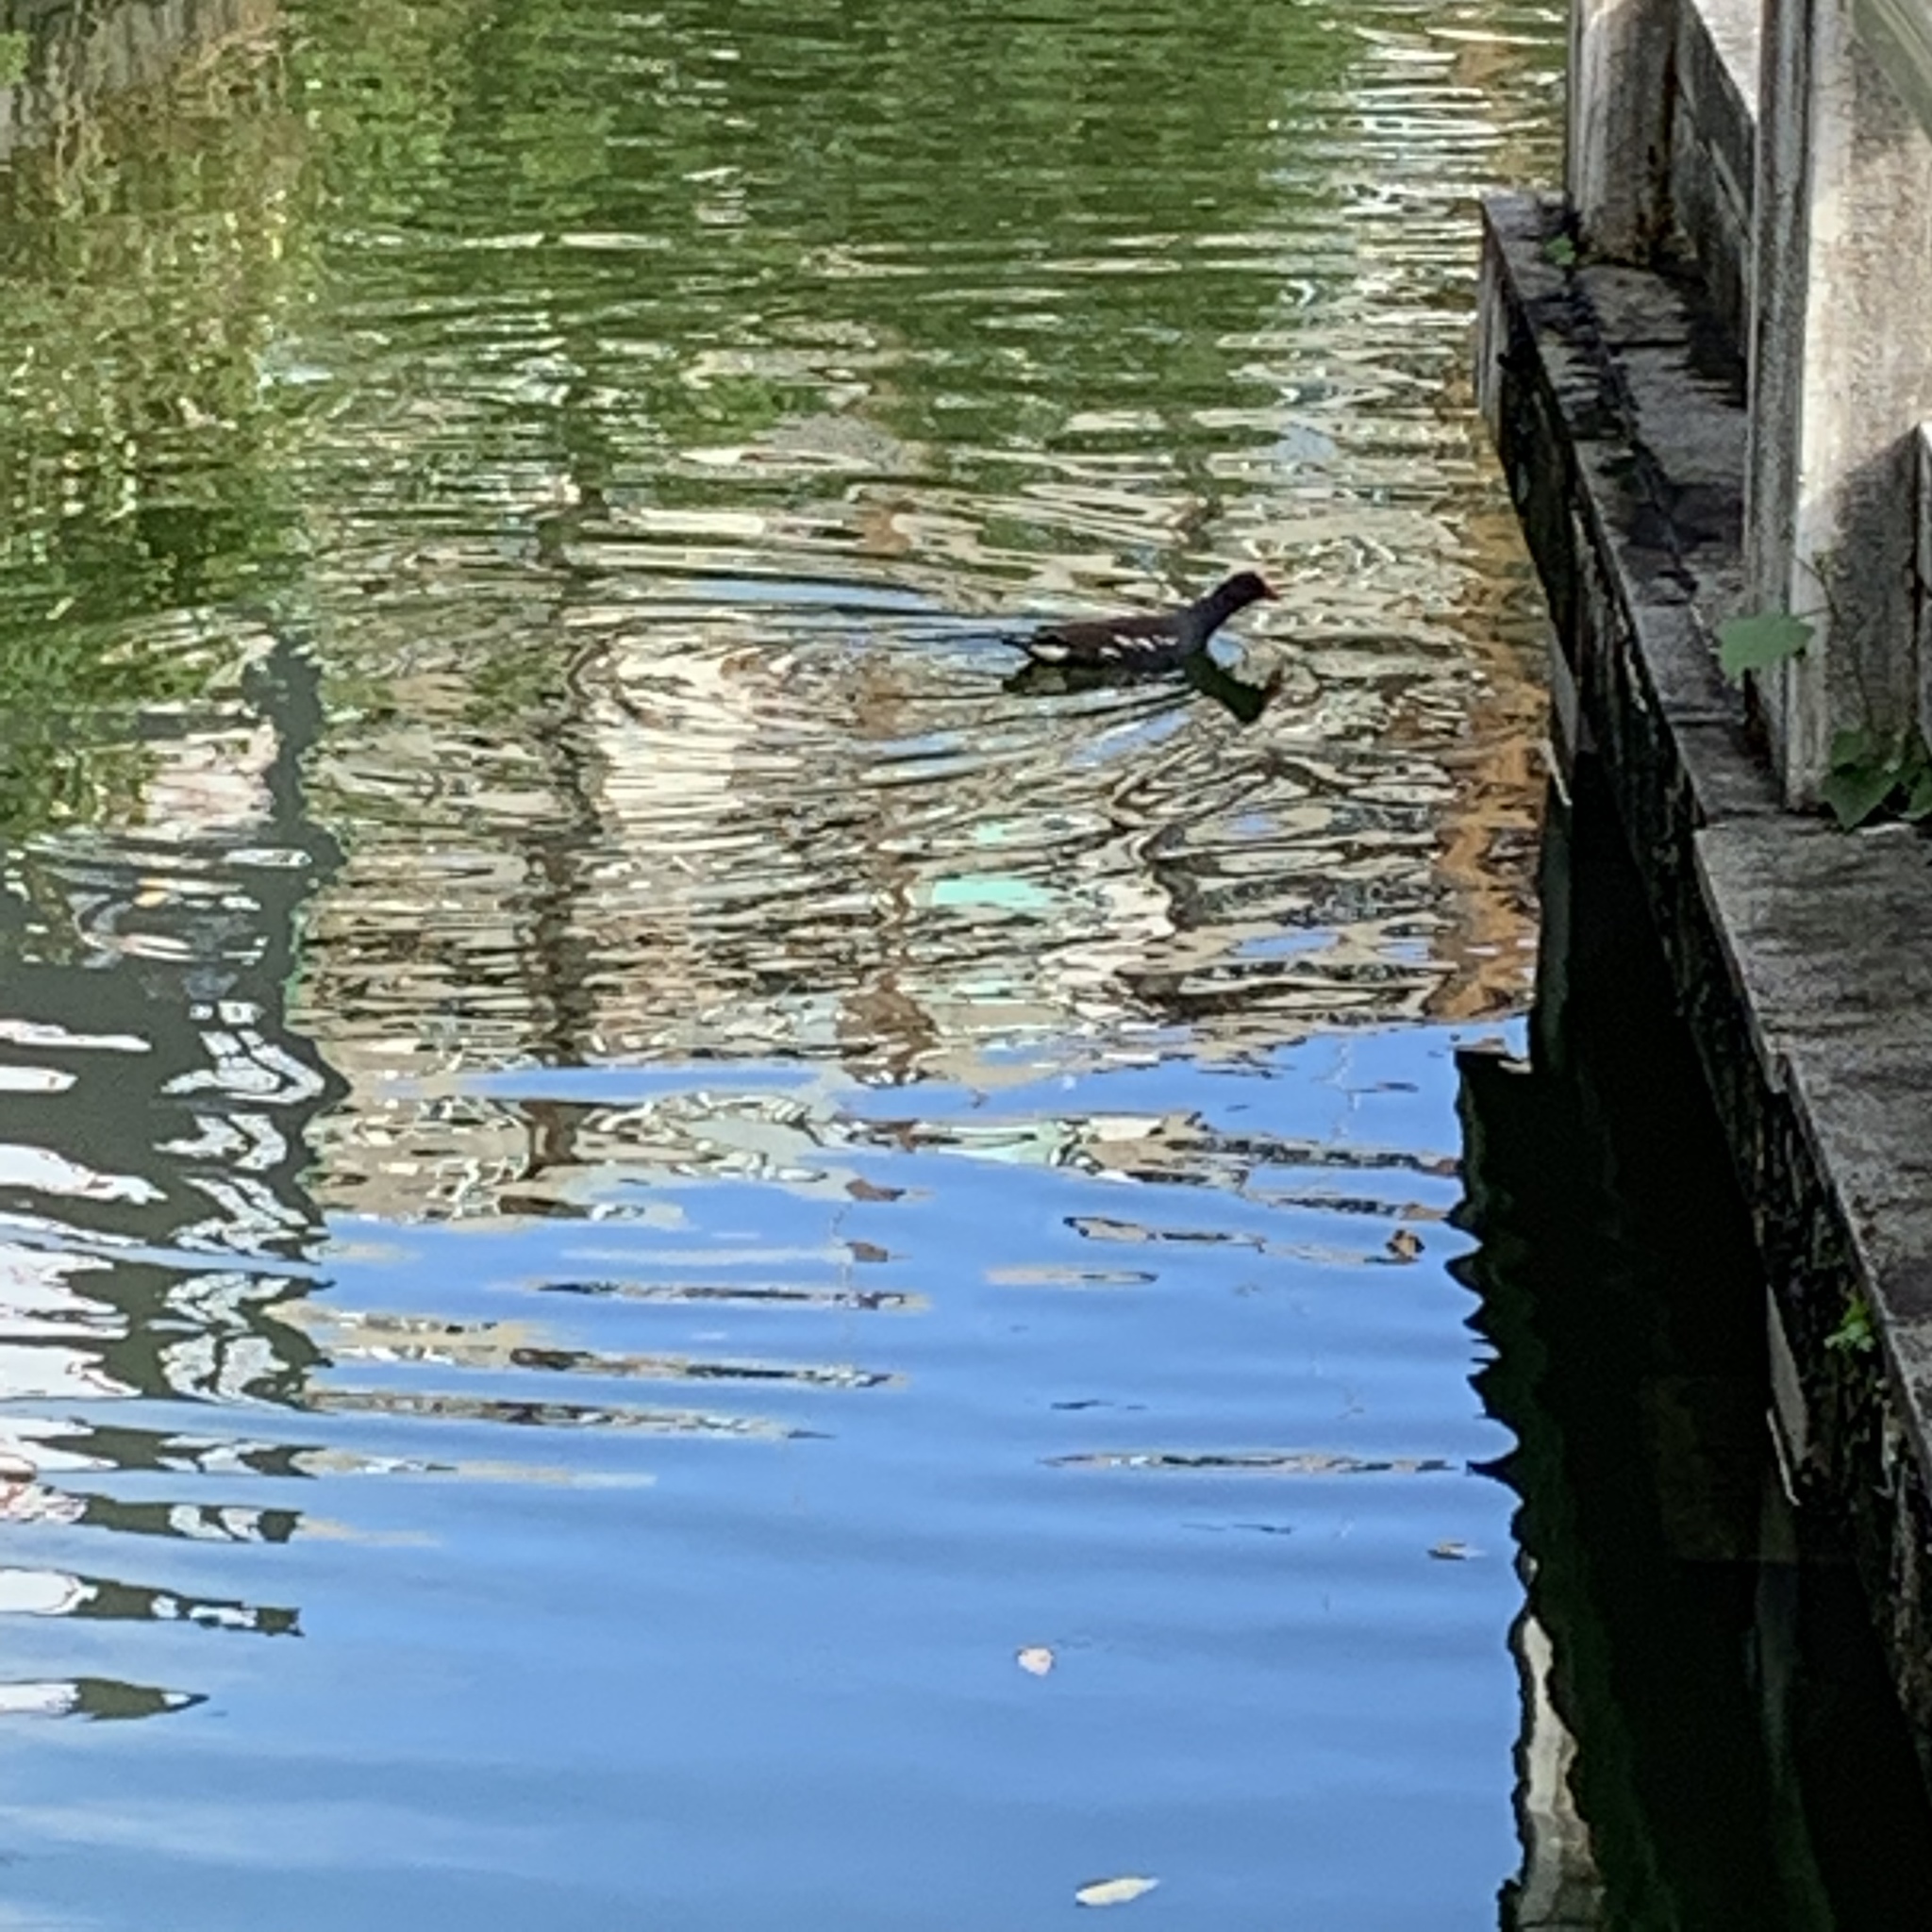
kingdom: Animalia
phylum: Chordata
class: Aves
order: Gruiformes
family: Rallidae
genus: Gallinula
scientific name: Gallinula chloropus
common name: Common moorhen
